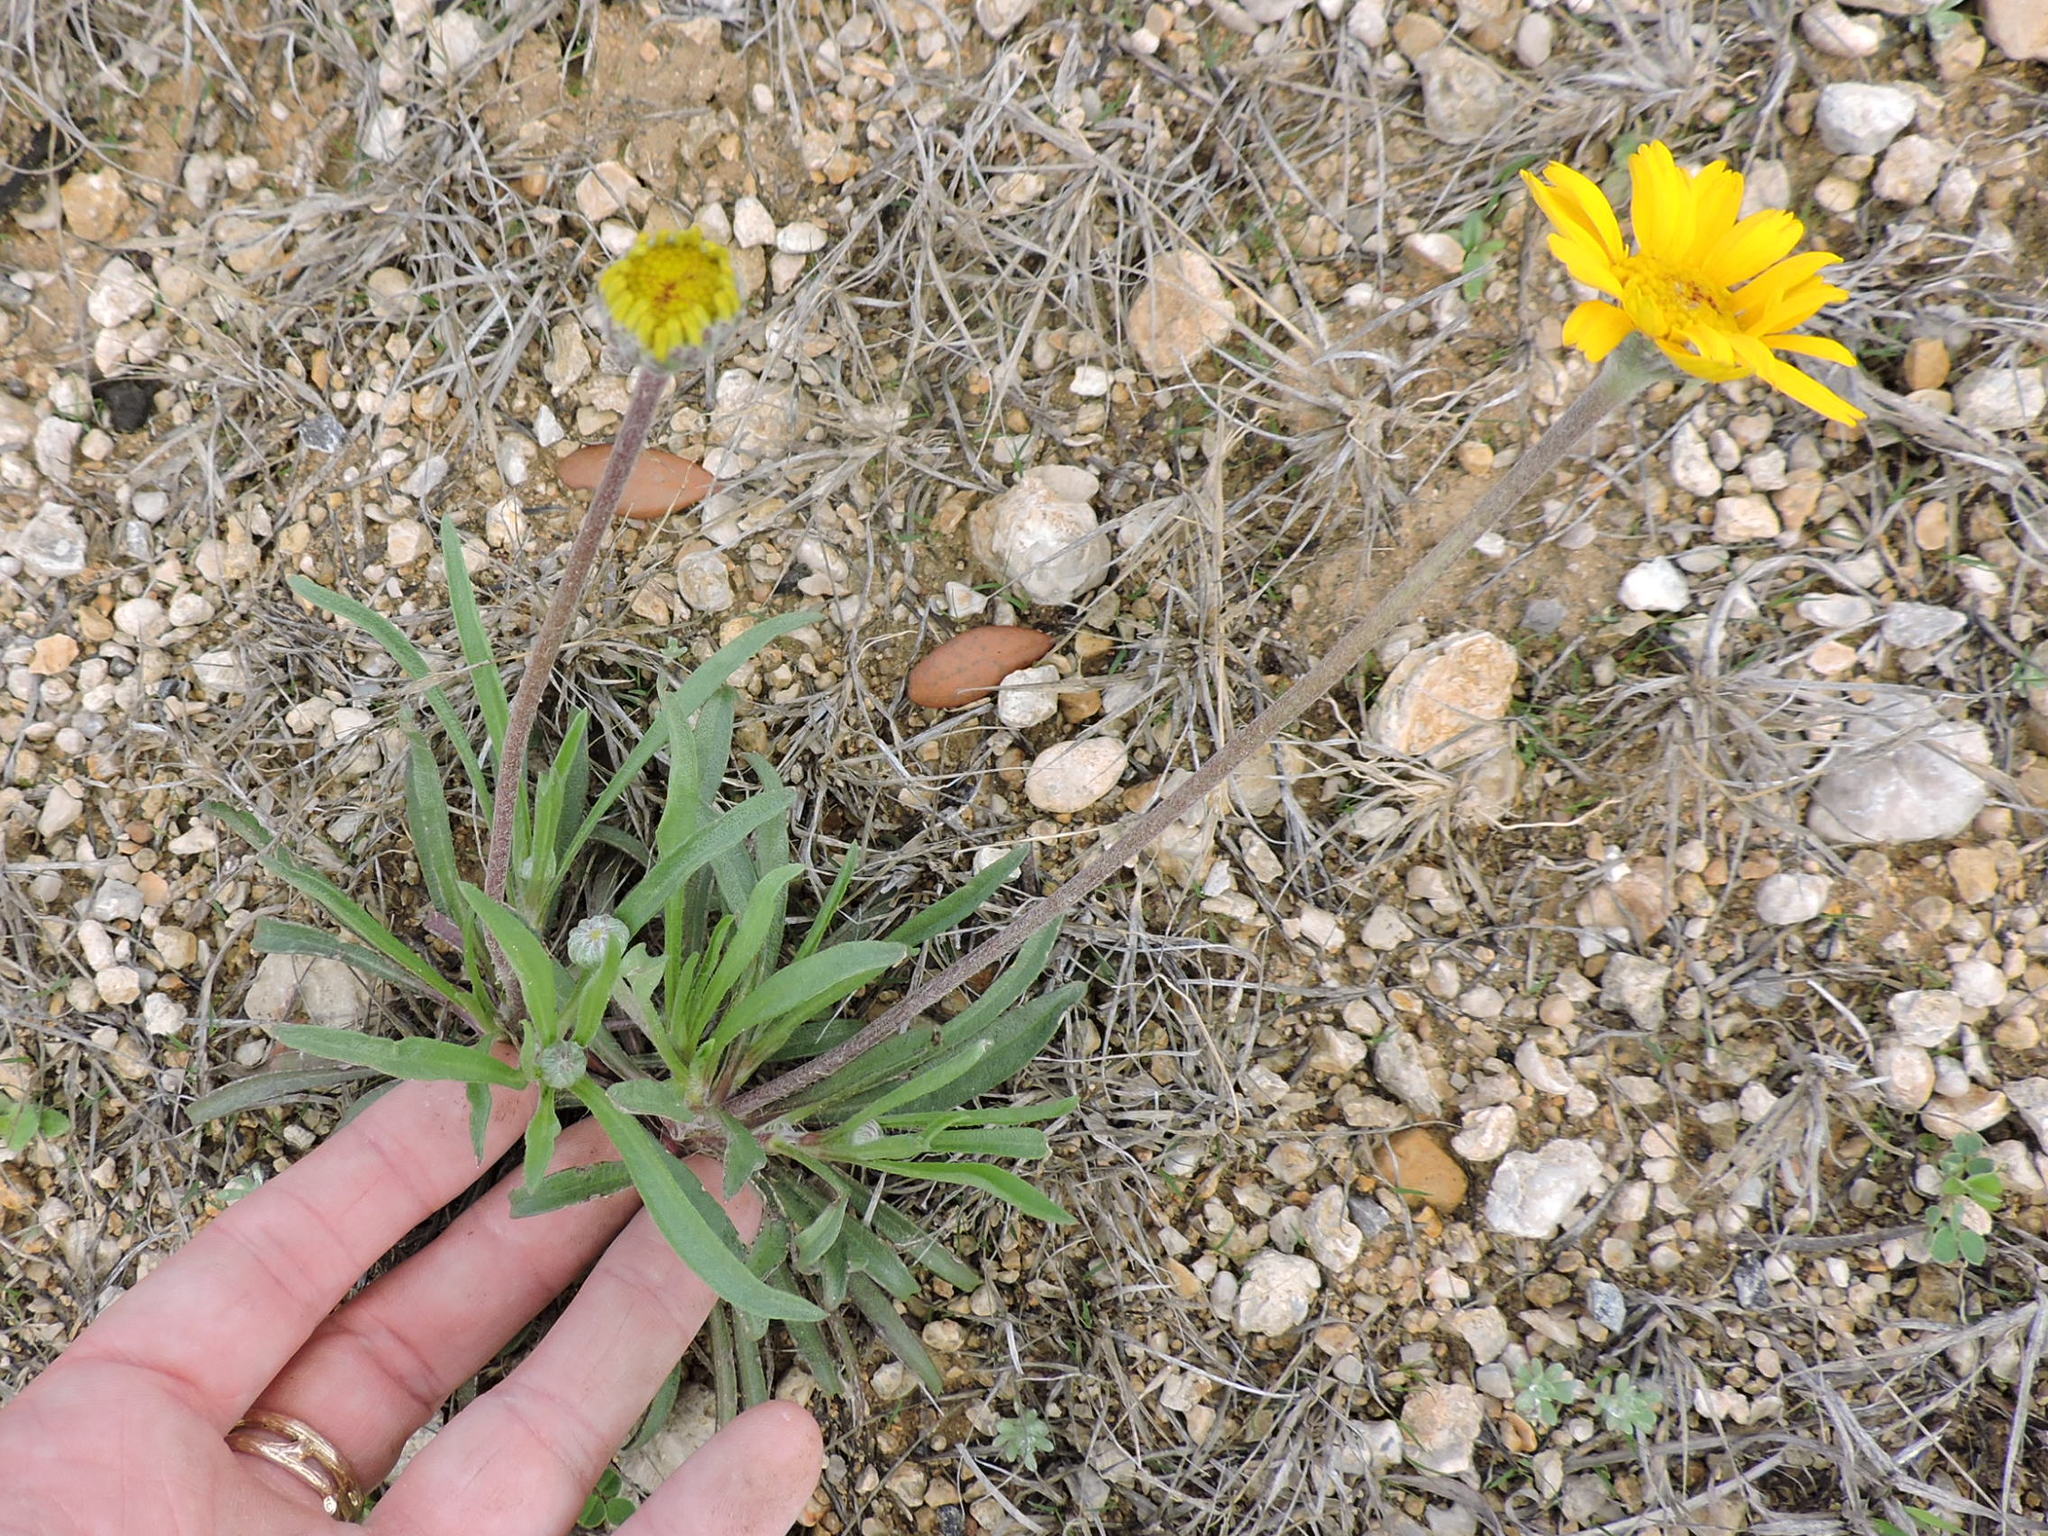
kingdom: Plantae
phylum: Tracheophyta
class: Magnoliopsida
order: Asterales
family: Asteraceae
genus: Tetraneuris
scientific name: Tetraneuris scaposa
